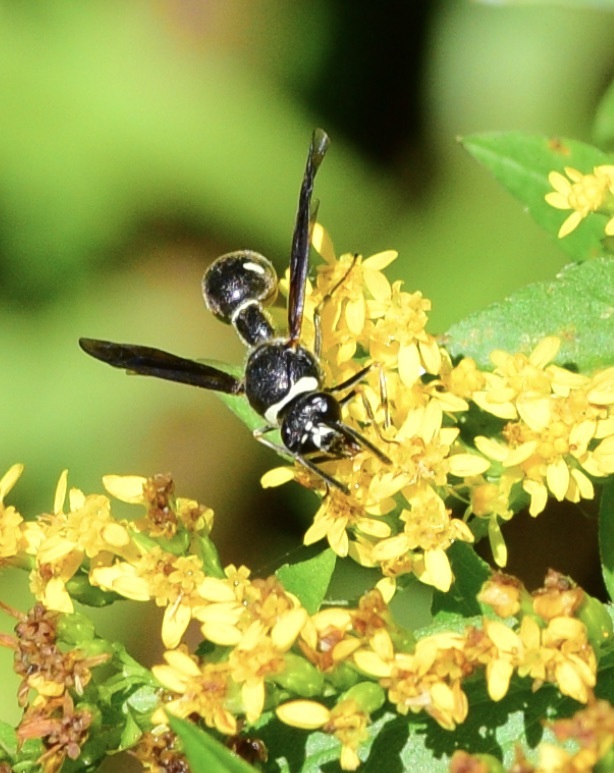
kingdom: Animalia
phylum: Arthropoda
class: Insecta
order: Hymenoptera
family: Vespidae
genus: Eumenes
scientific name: Eumenes fraternus
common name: Fraternal potter wasp
